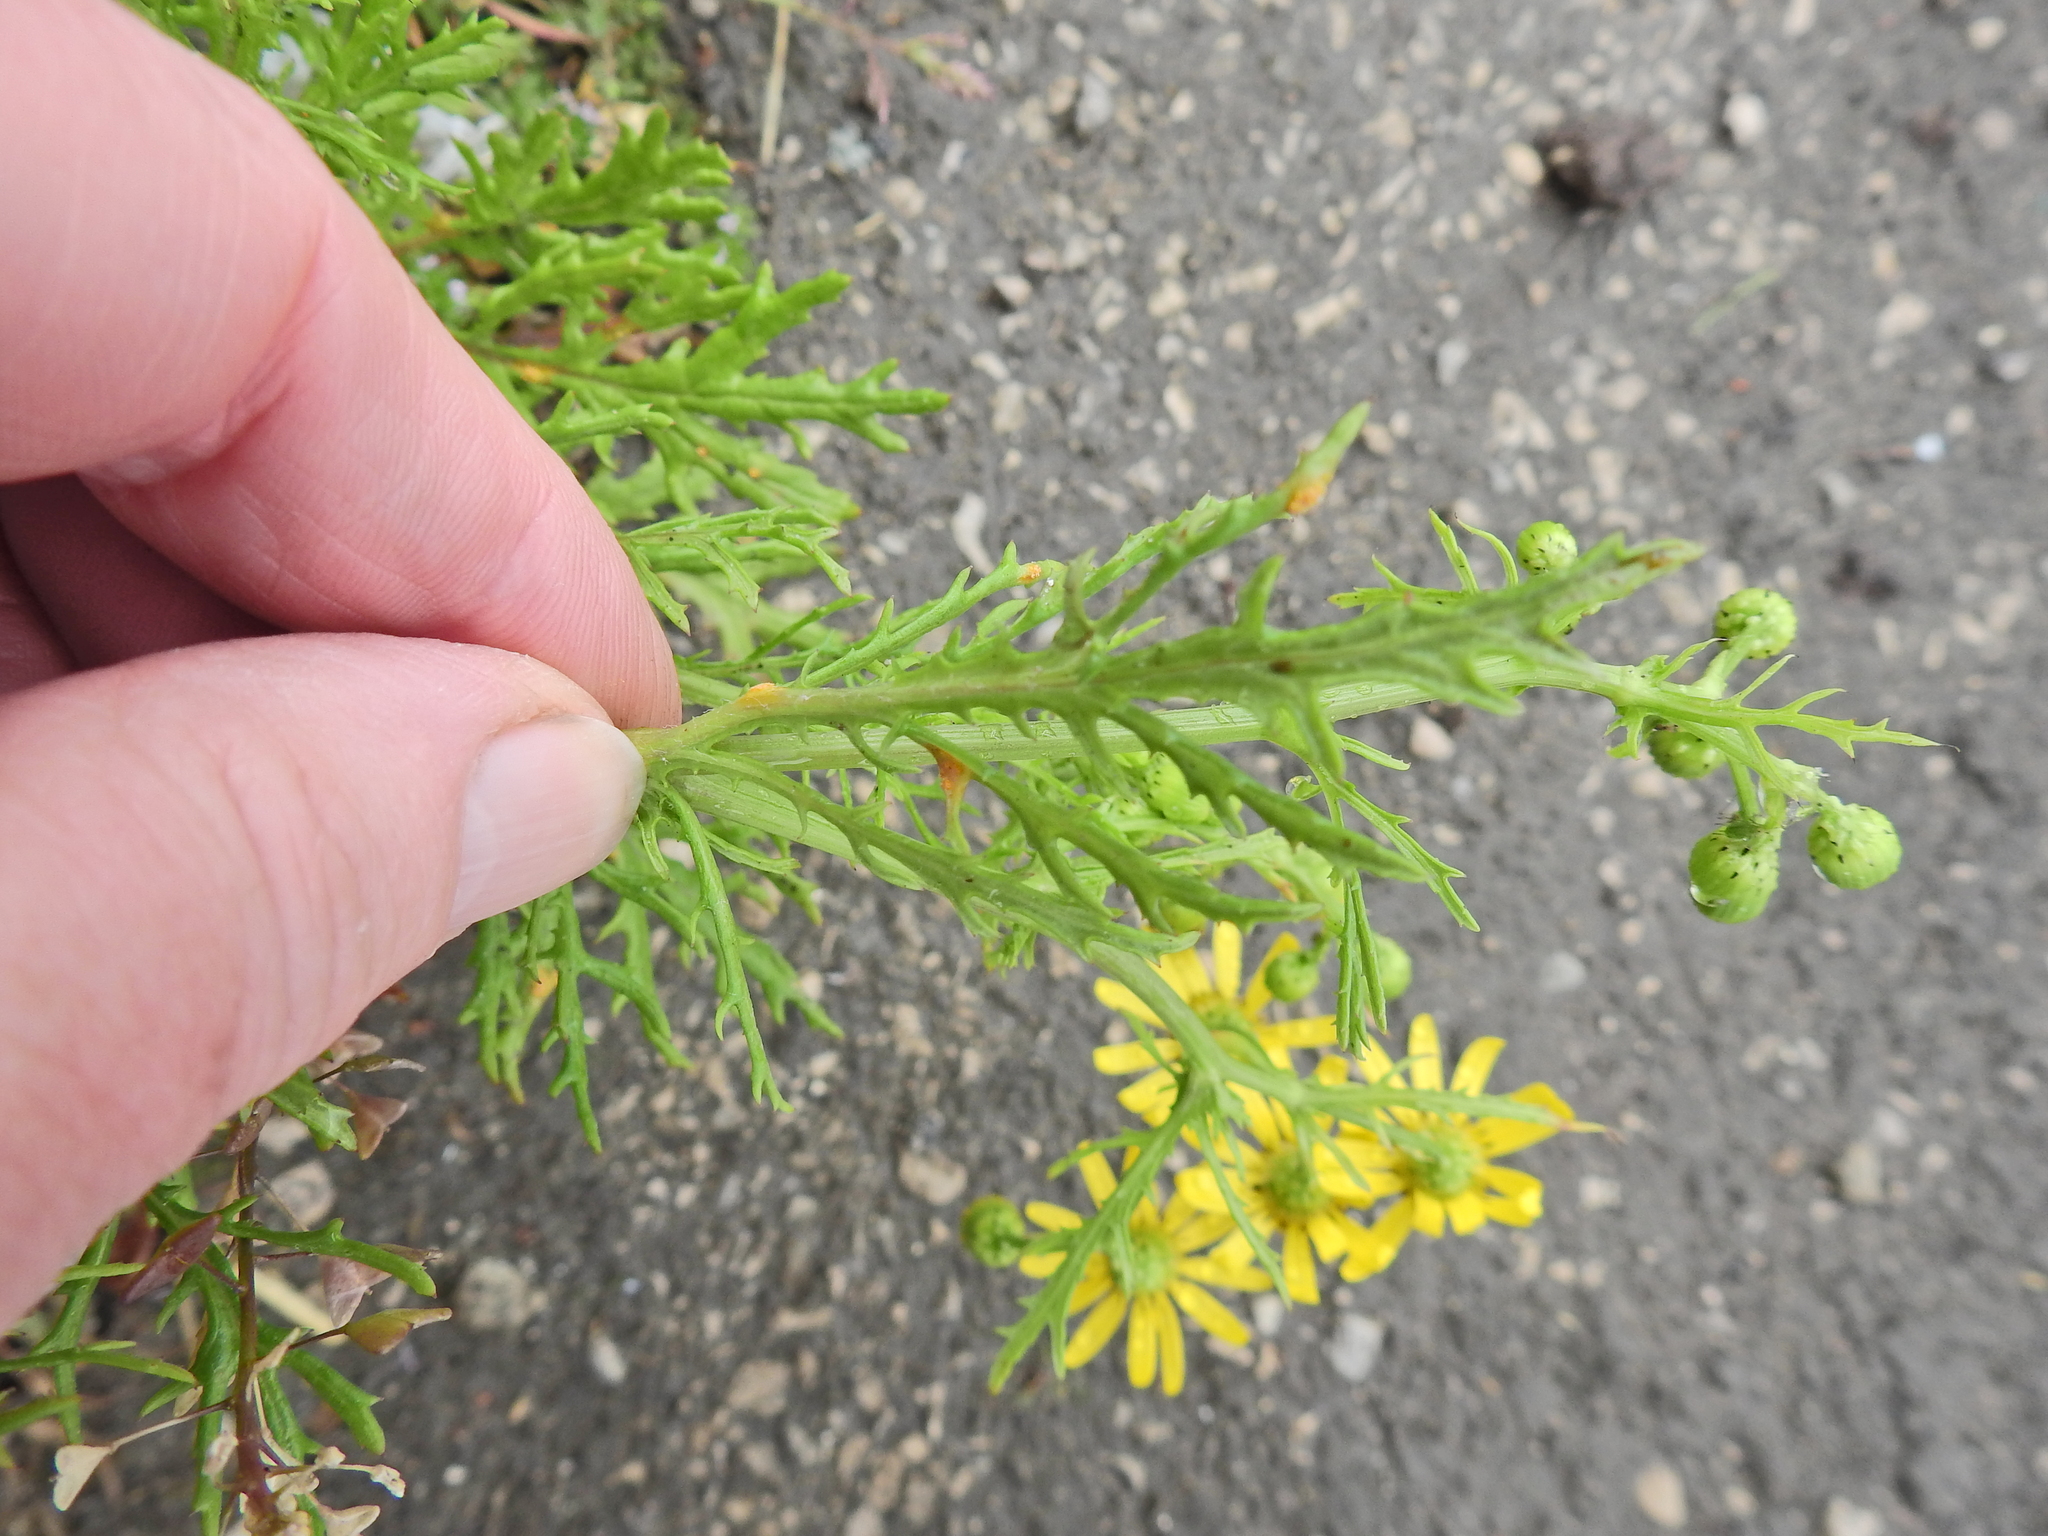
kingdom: Fungi
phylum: Basidiomycota
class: Pucciniomycetes
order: Pucciniales
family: Pucciniaceae
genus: Puccinia
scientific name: Puccinia lagenophorae
